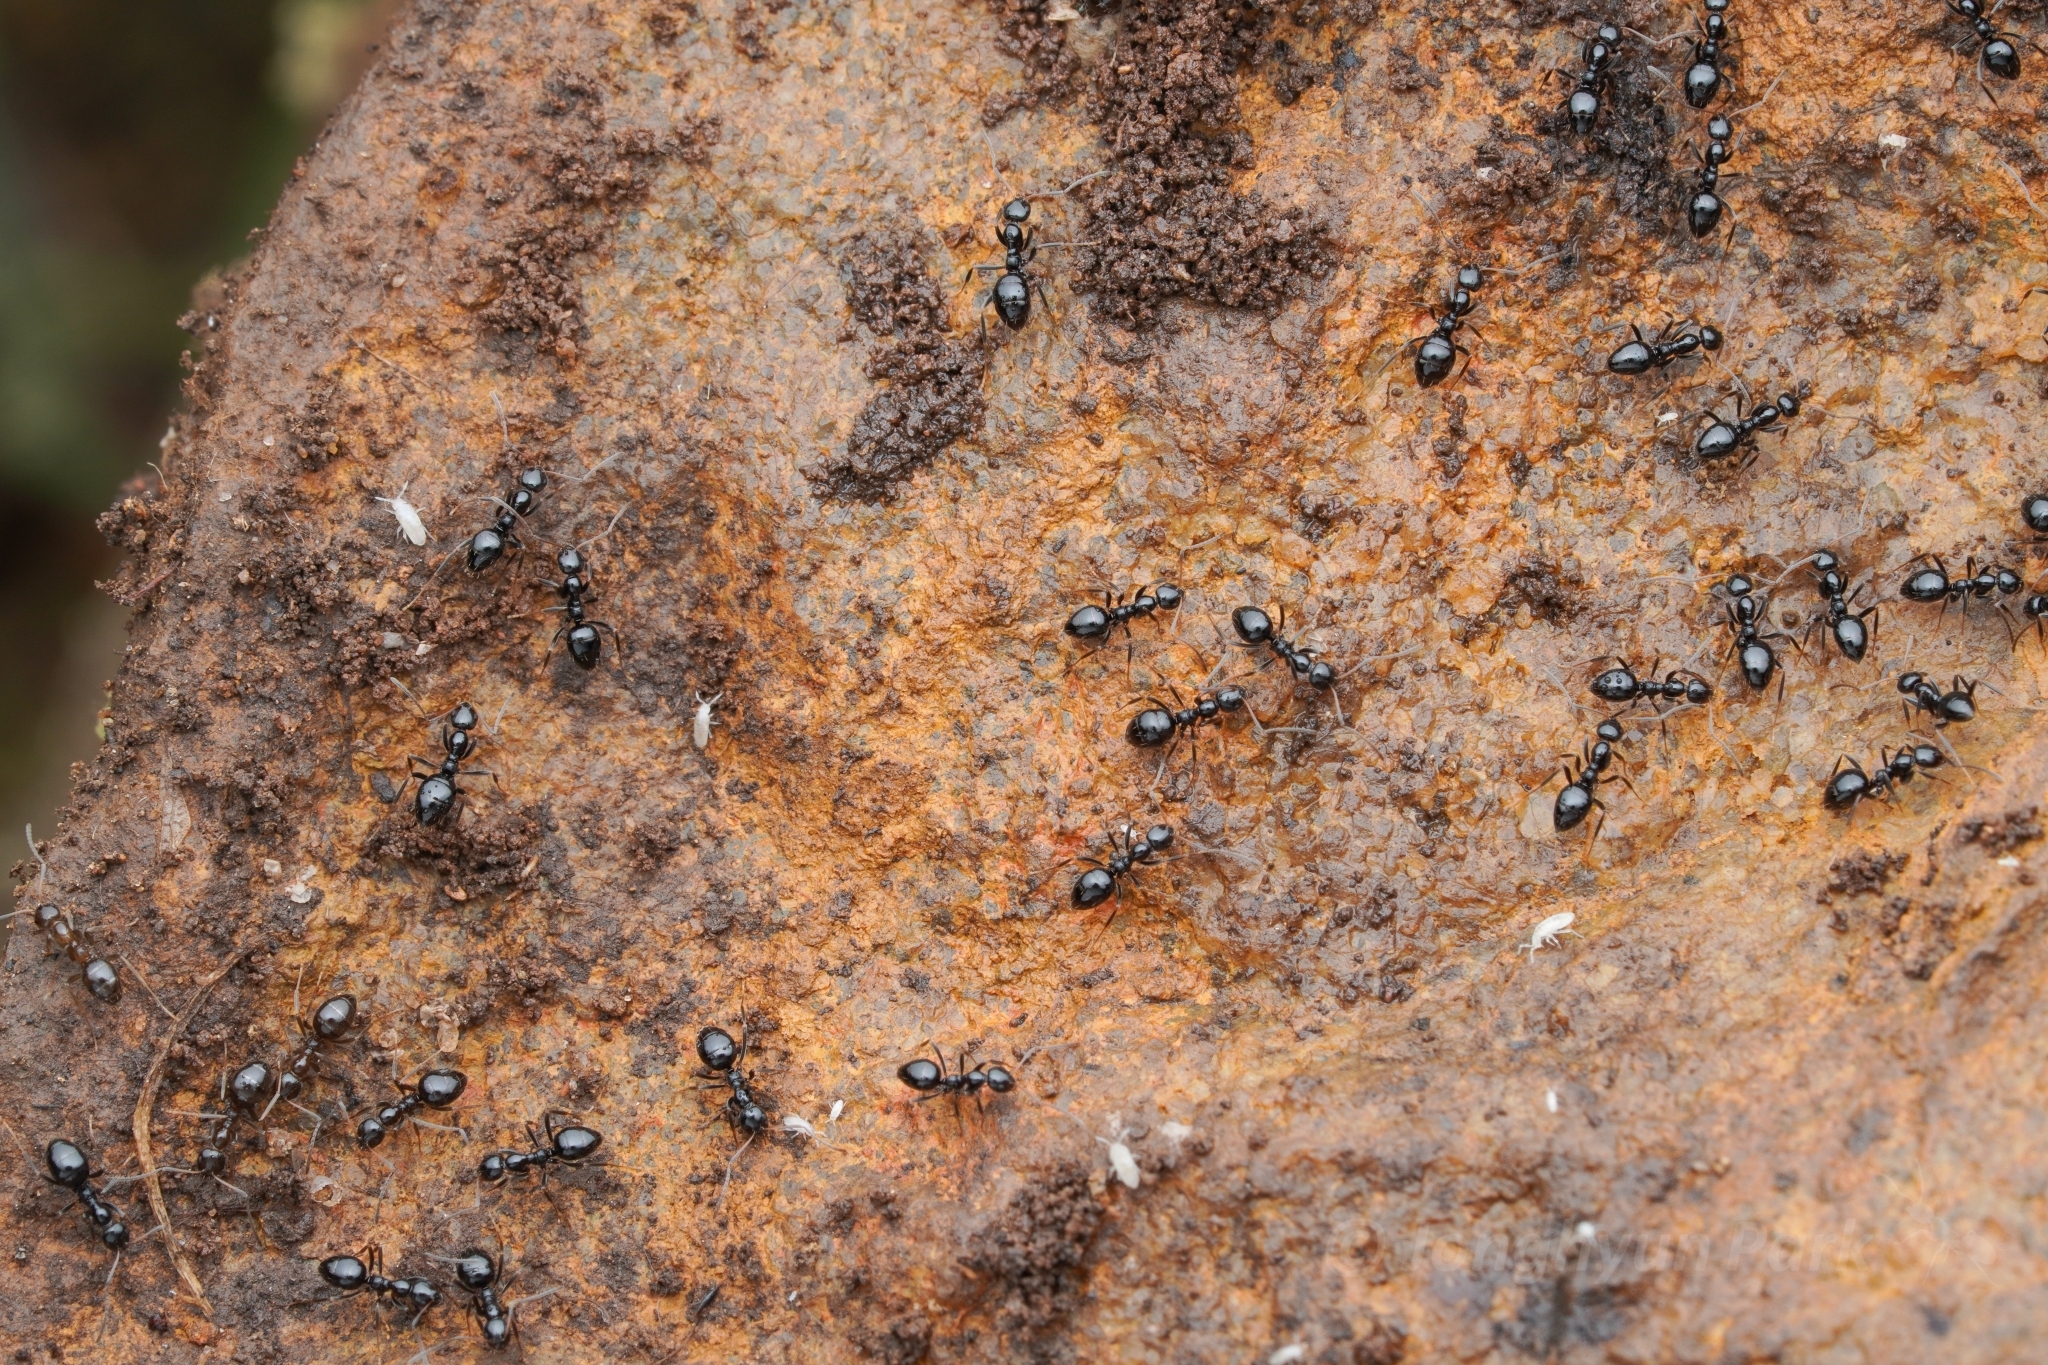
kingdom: Animalia
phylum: Arthropoda
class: Insecta
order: Hymenoptera
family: Formicidae
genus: Plagiolepis
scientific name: Plagiolepis deweti
